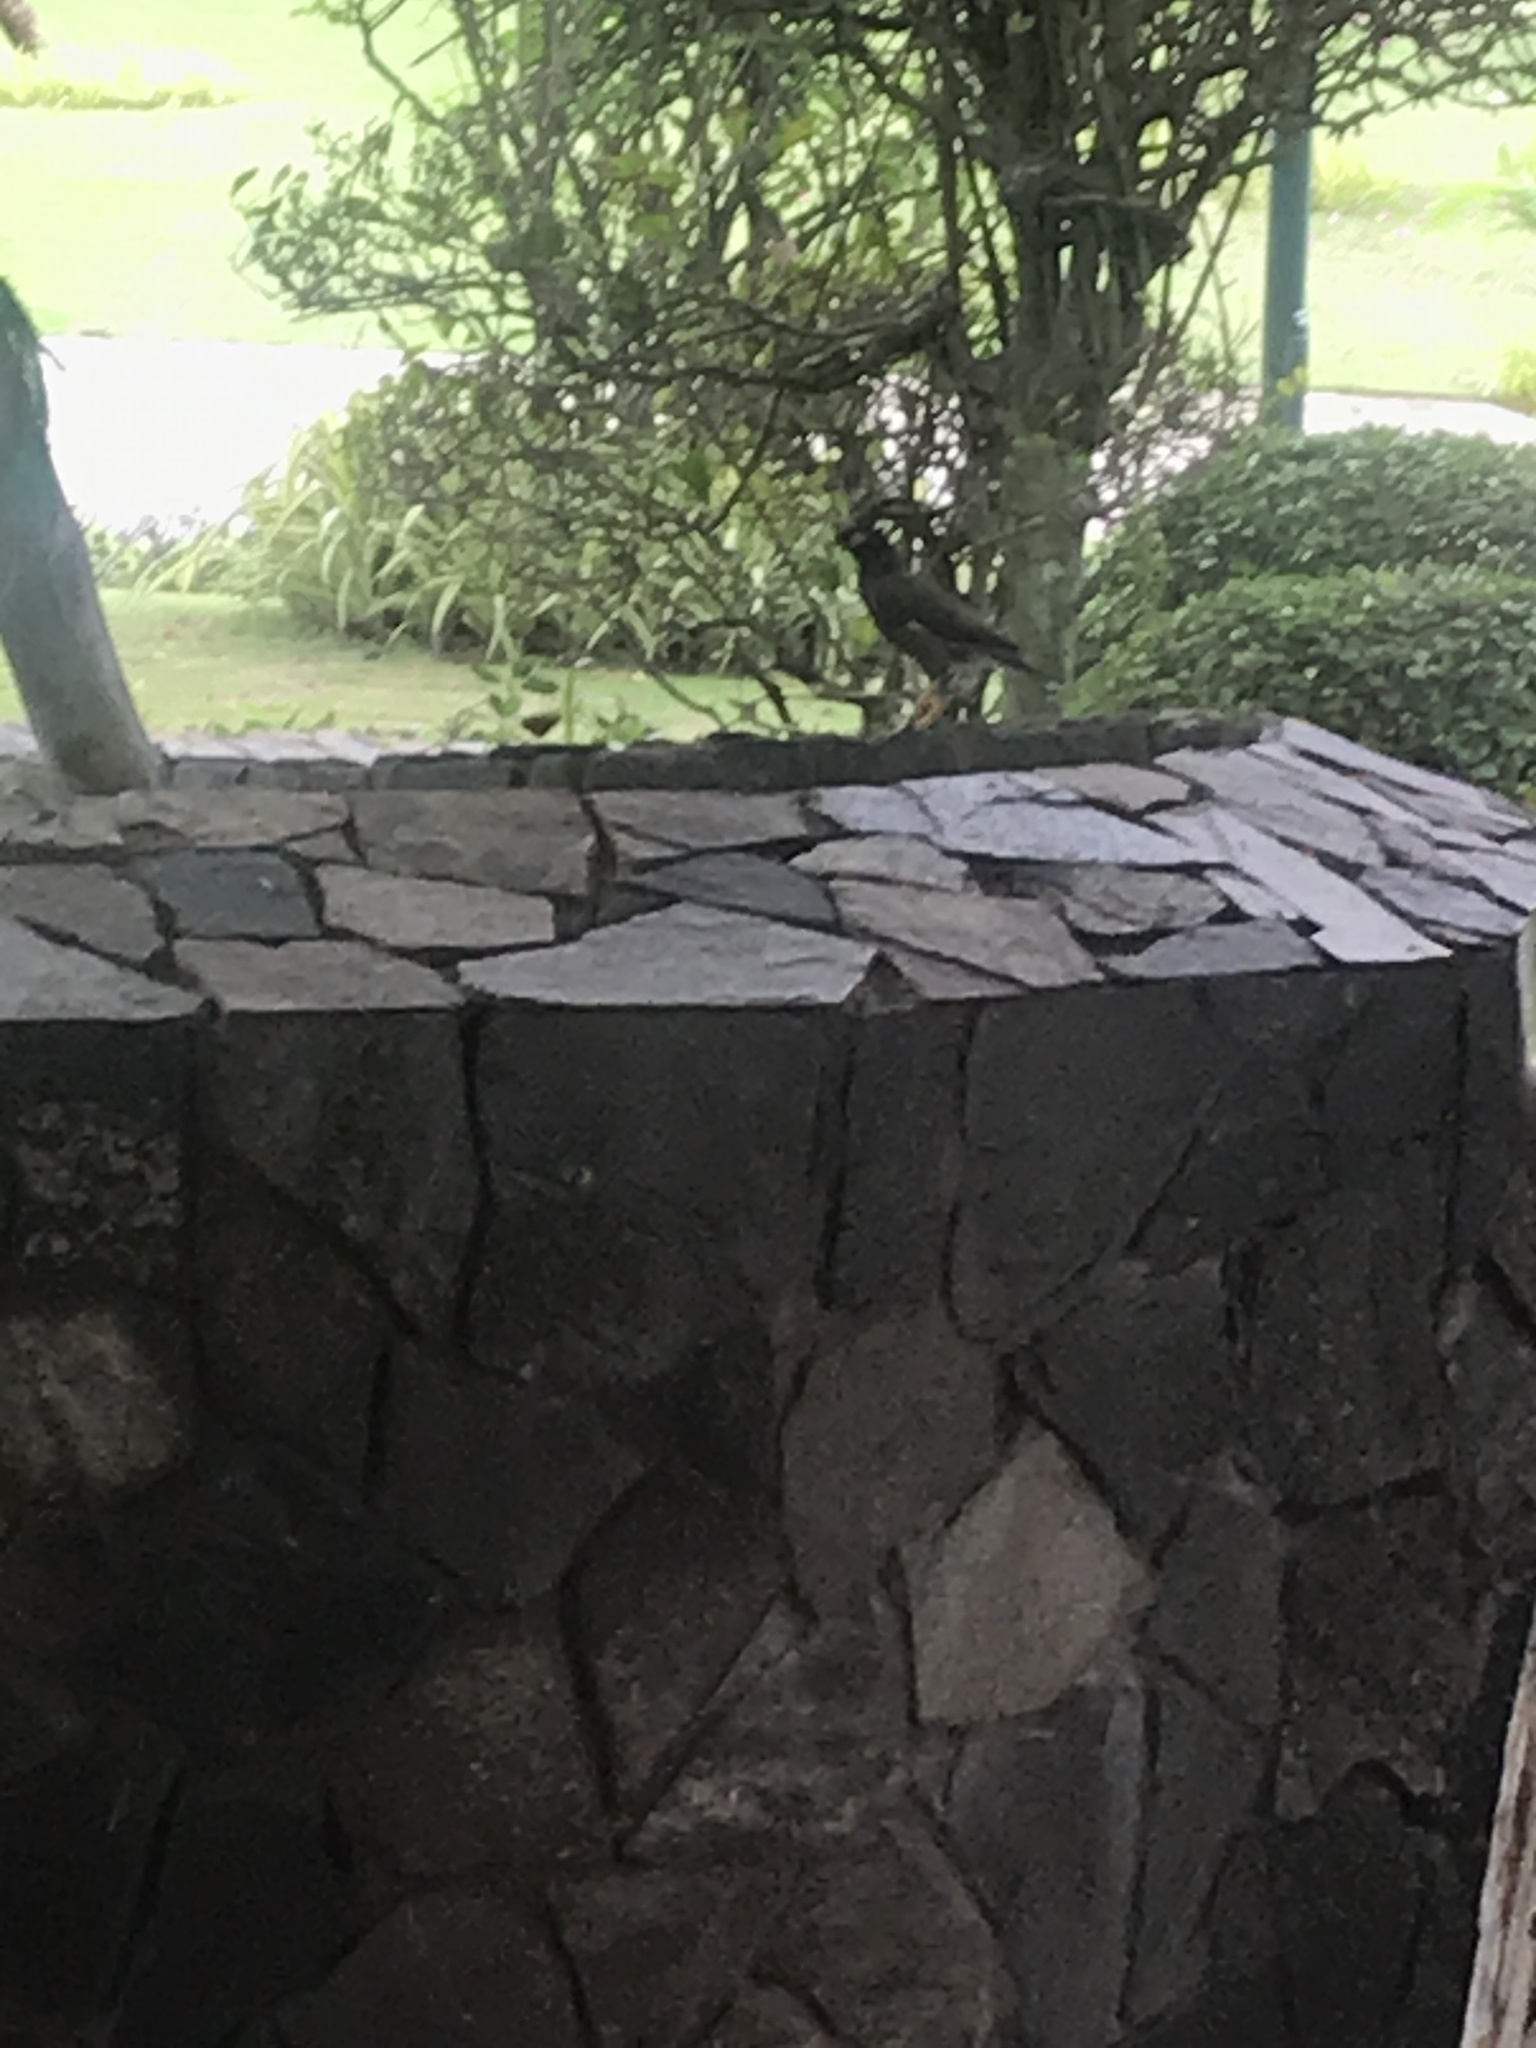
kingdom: Animalia
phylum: Chordata
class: Aves
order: Passeriformes
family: Sturnidae
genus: Acridotheres
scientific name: Acridotheres tristis
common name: Common myna
